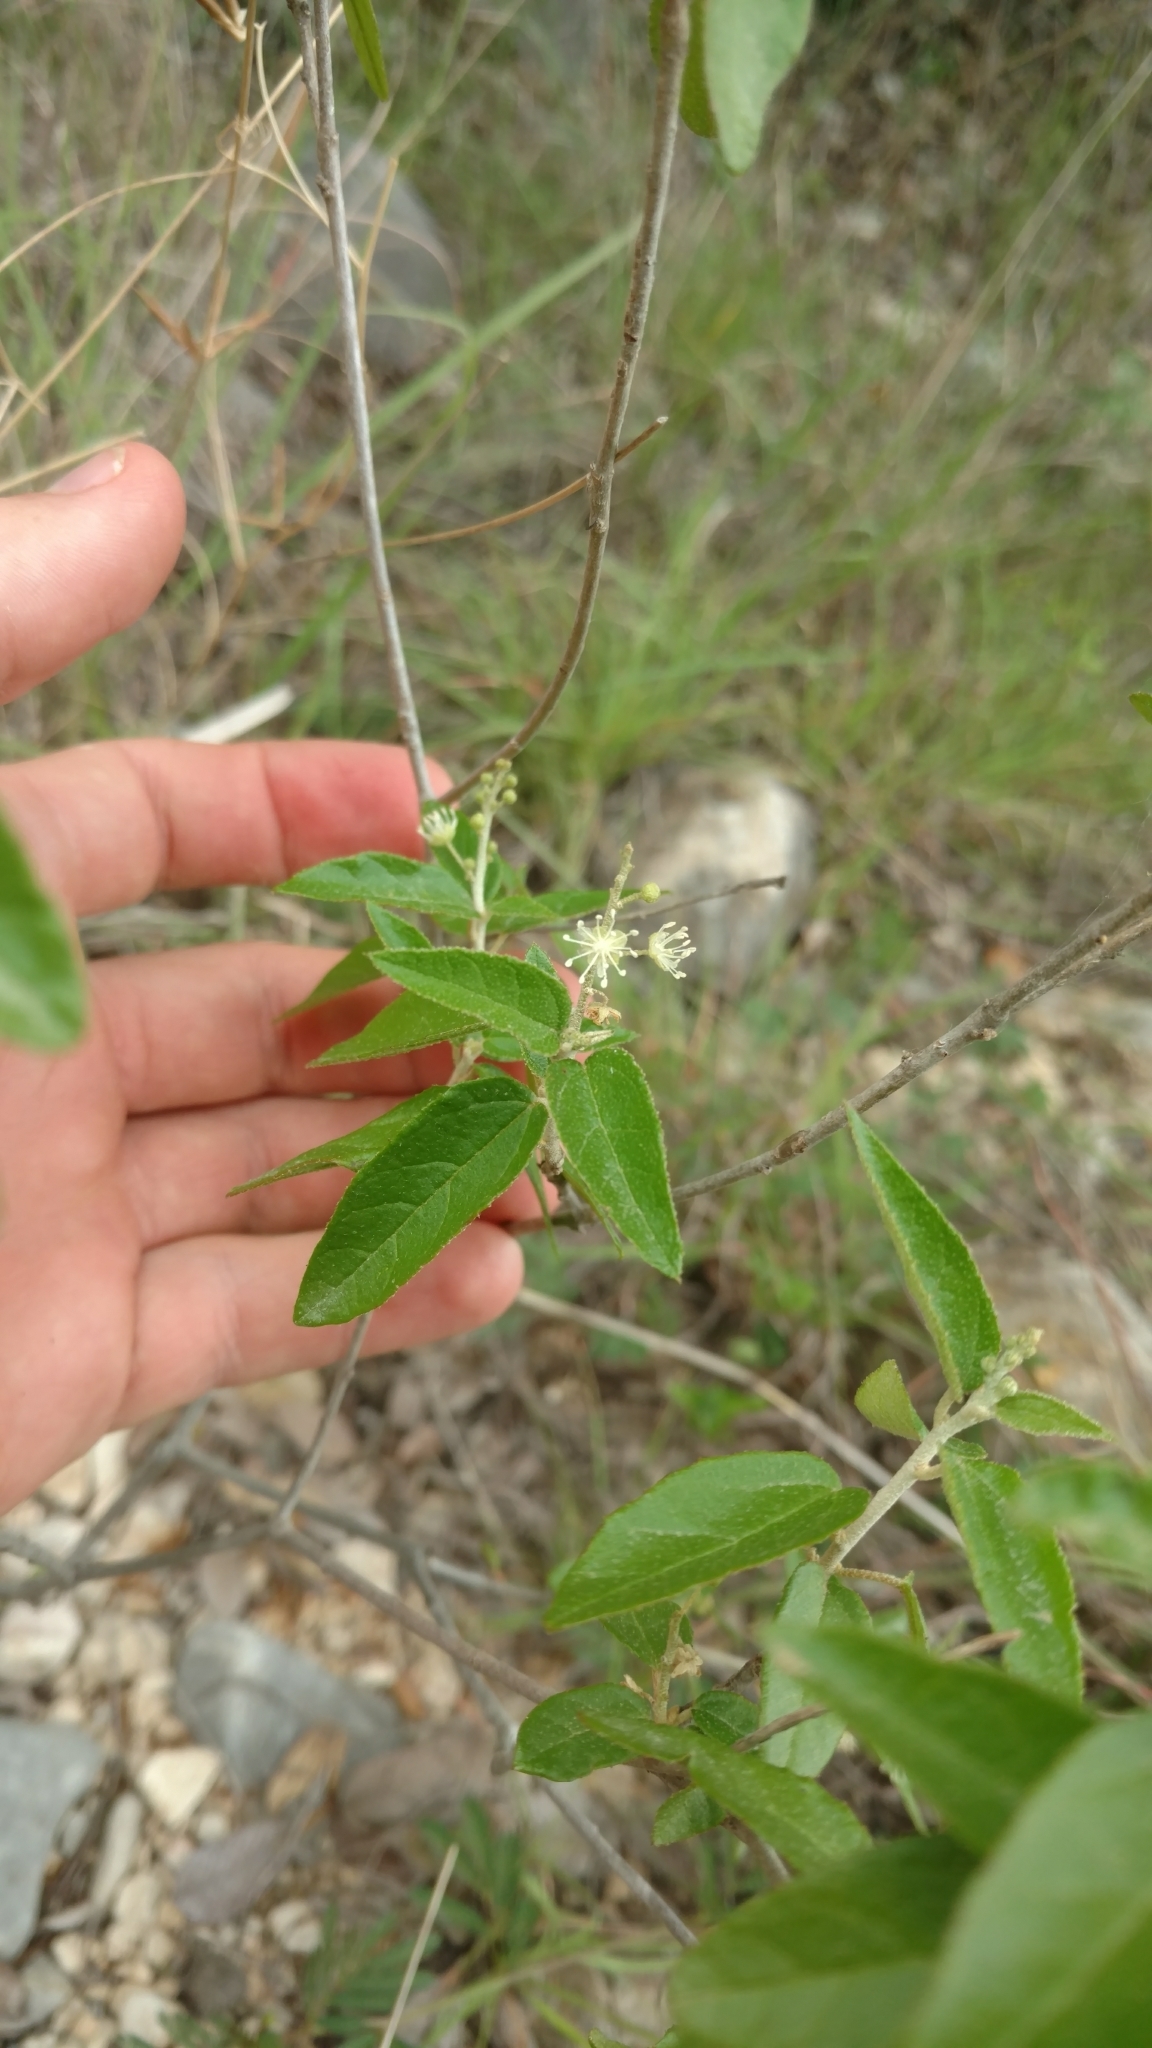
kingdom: Plantae
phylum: Tracheophyta
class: Magnoliopsida
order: Malpighiales
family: Euphorbiaceae
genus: Croton
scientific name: Croton fruticulosus
